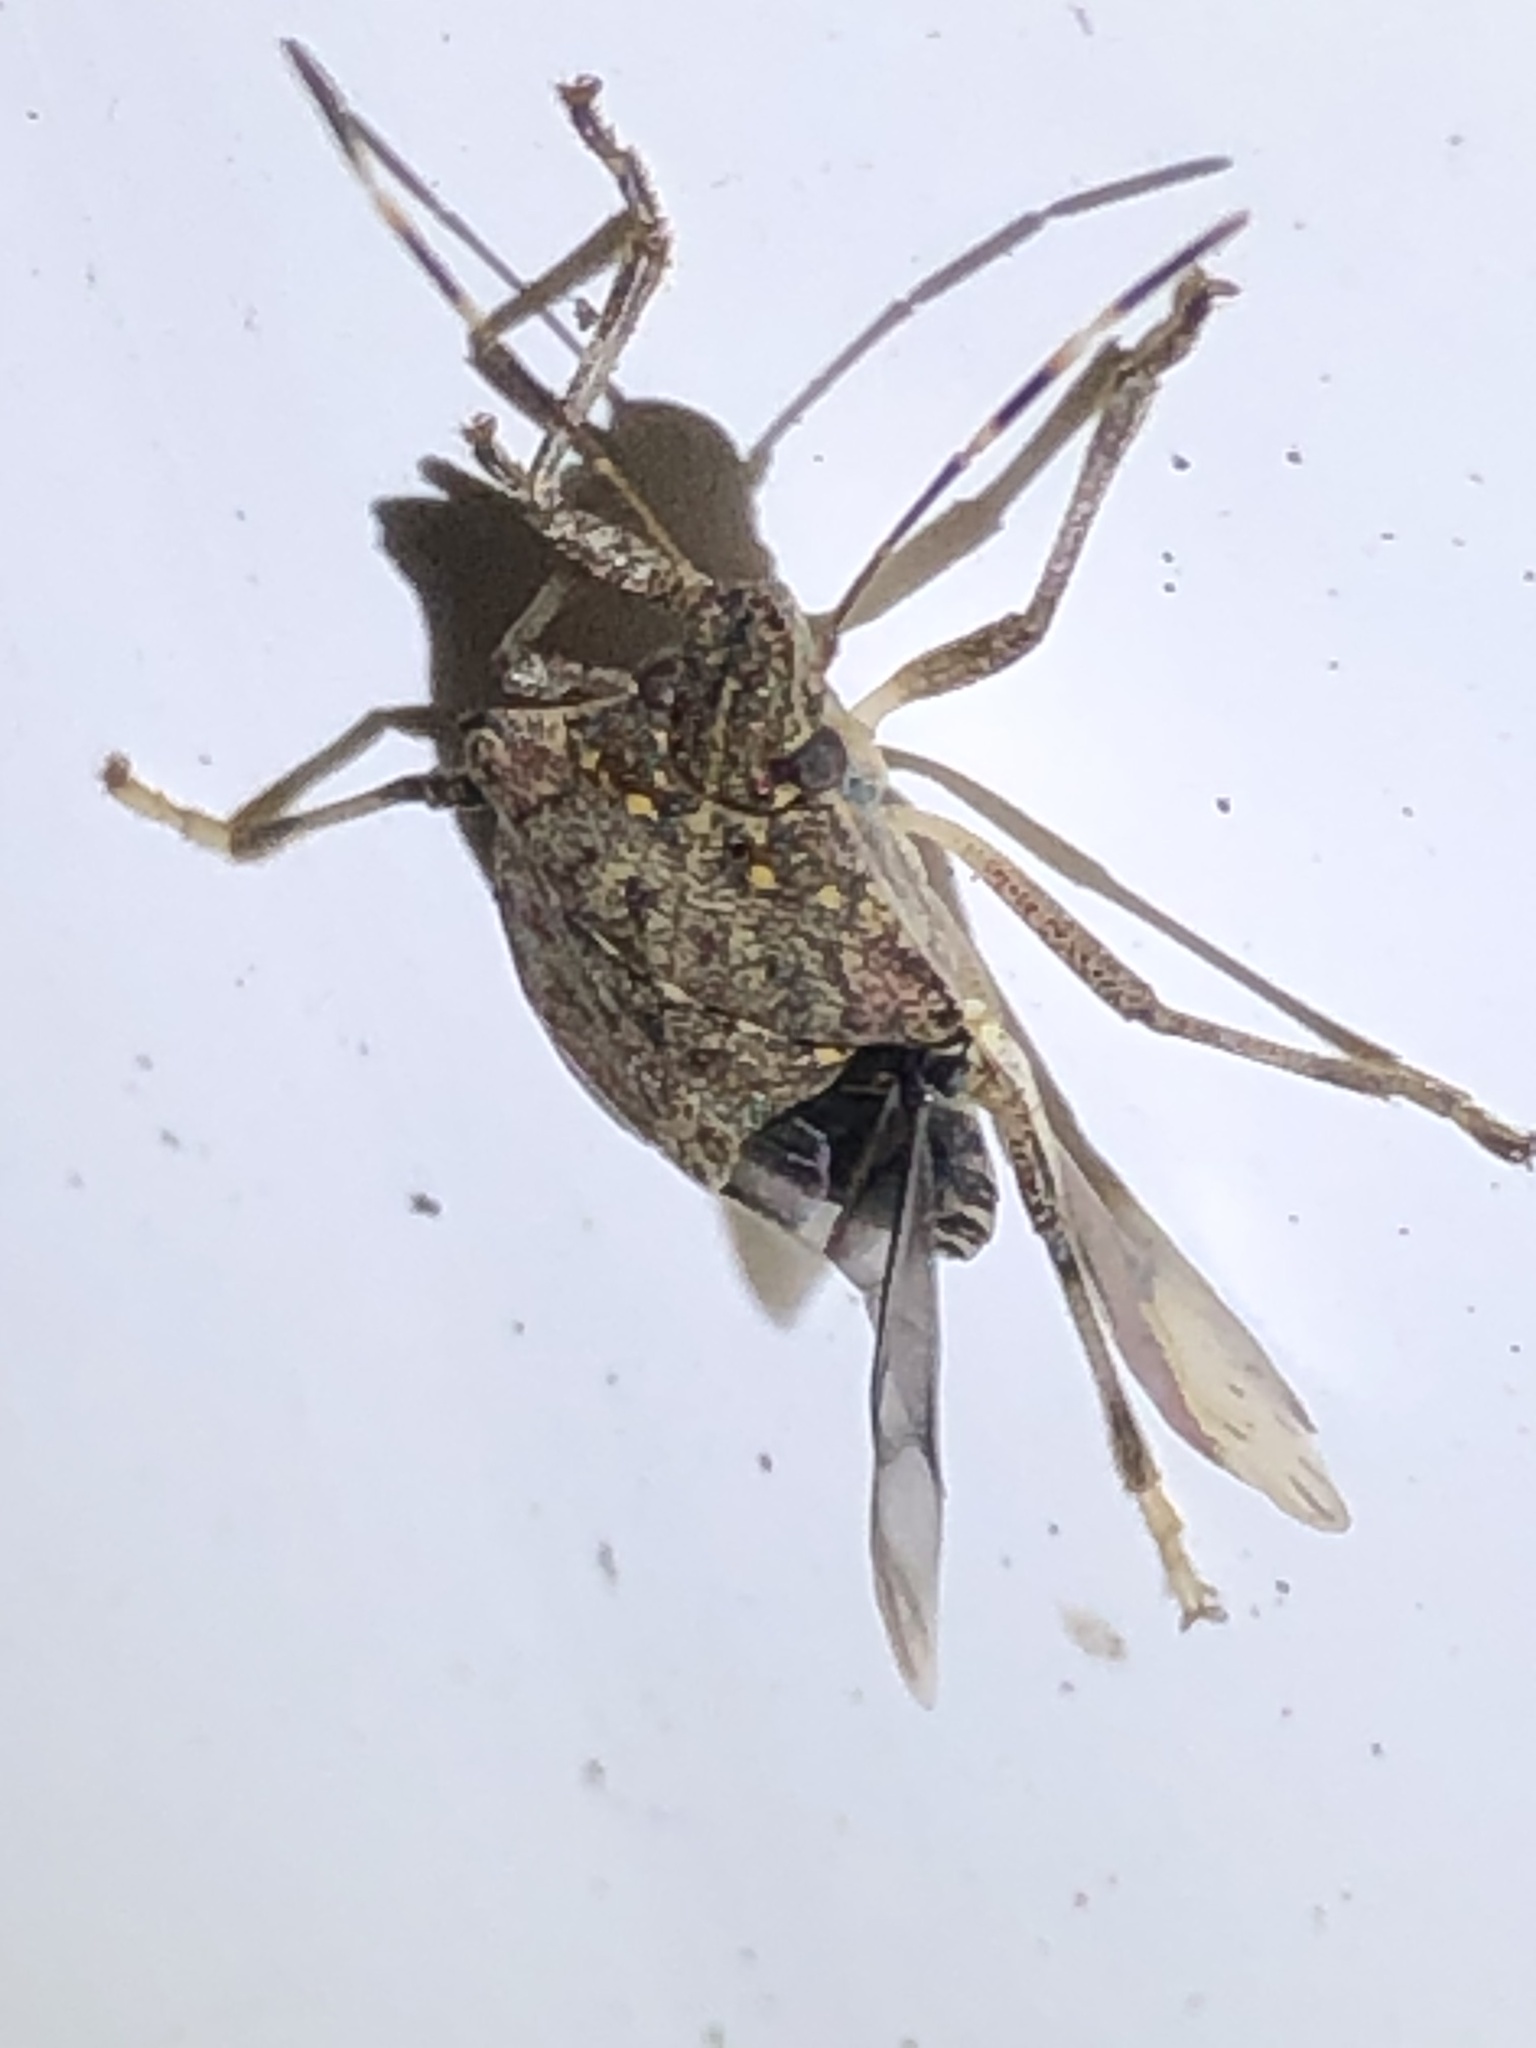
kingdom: Animalia
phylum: Arthropoda
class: Insecta
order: Hemiptera
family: Pentatomidae
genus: Halyomorpha
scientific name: Halyomorpha halys
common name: Brown marmorated stink bug
